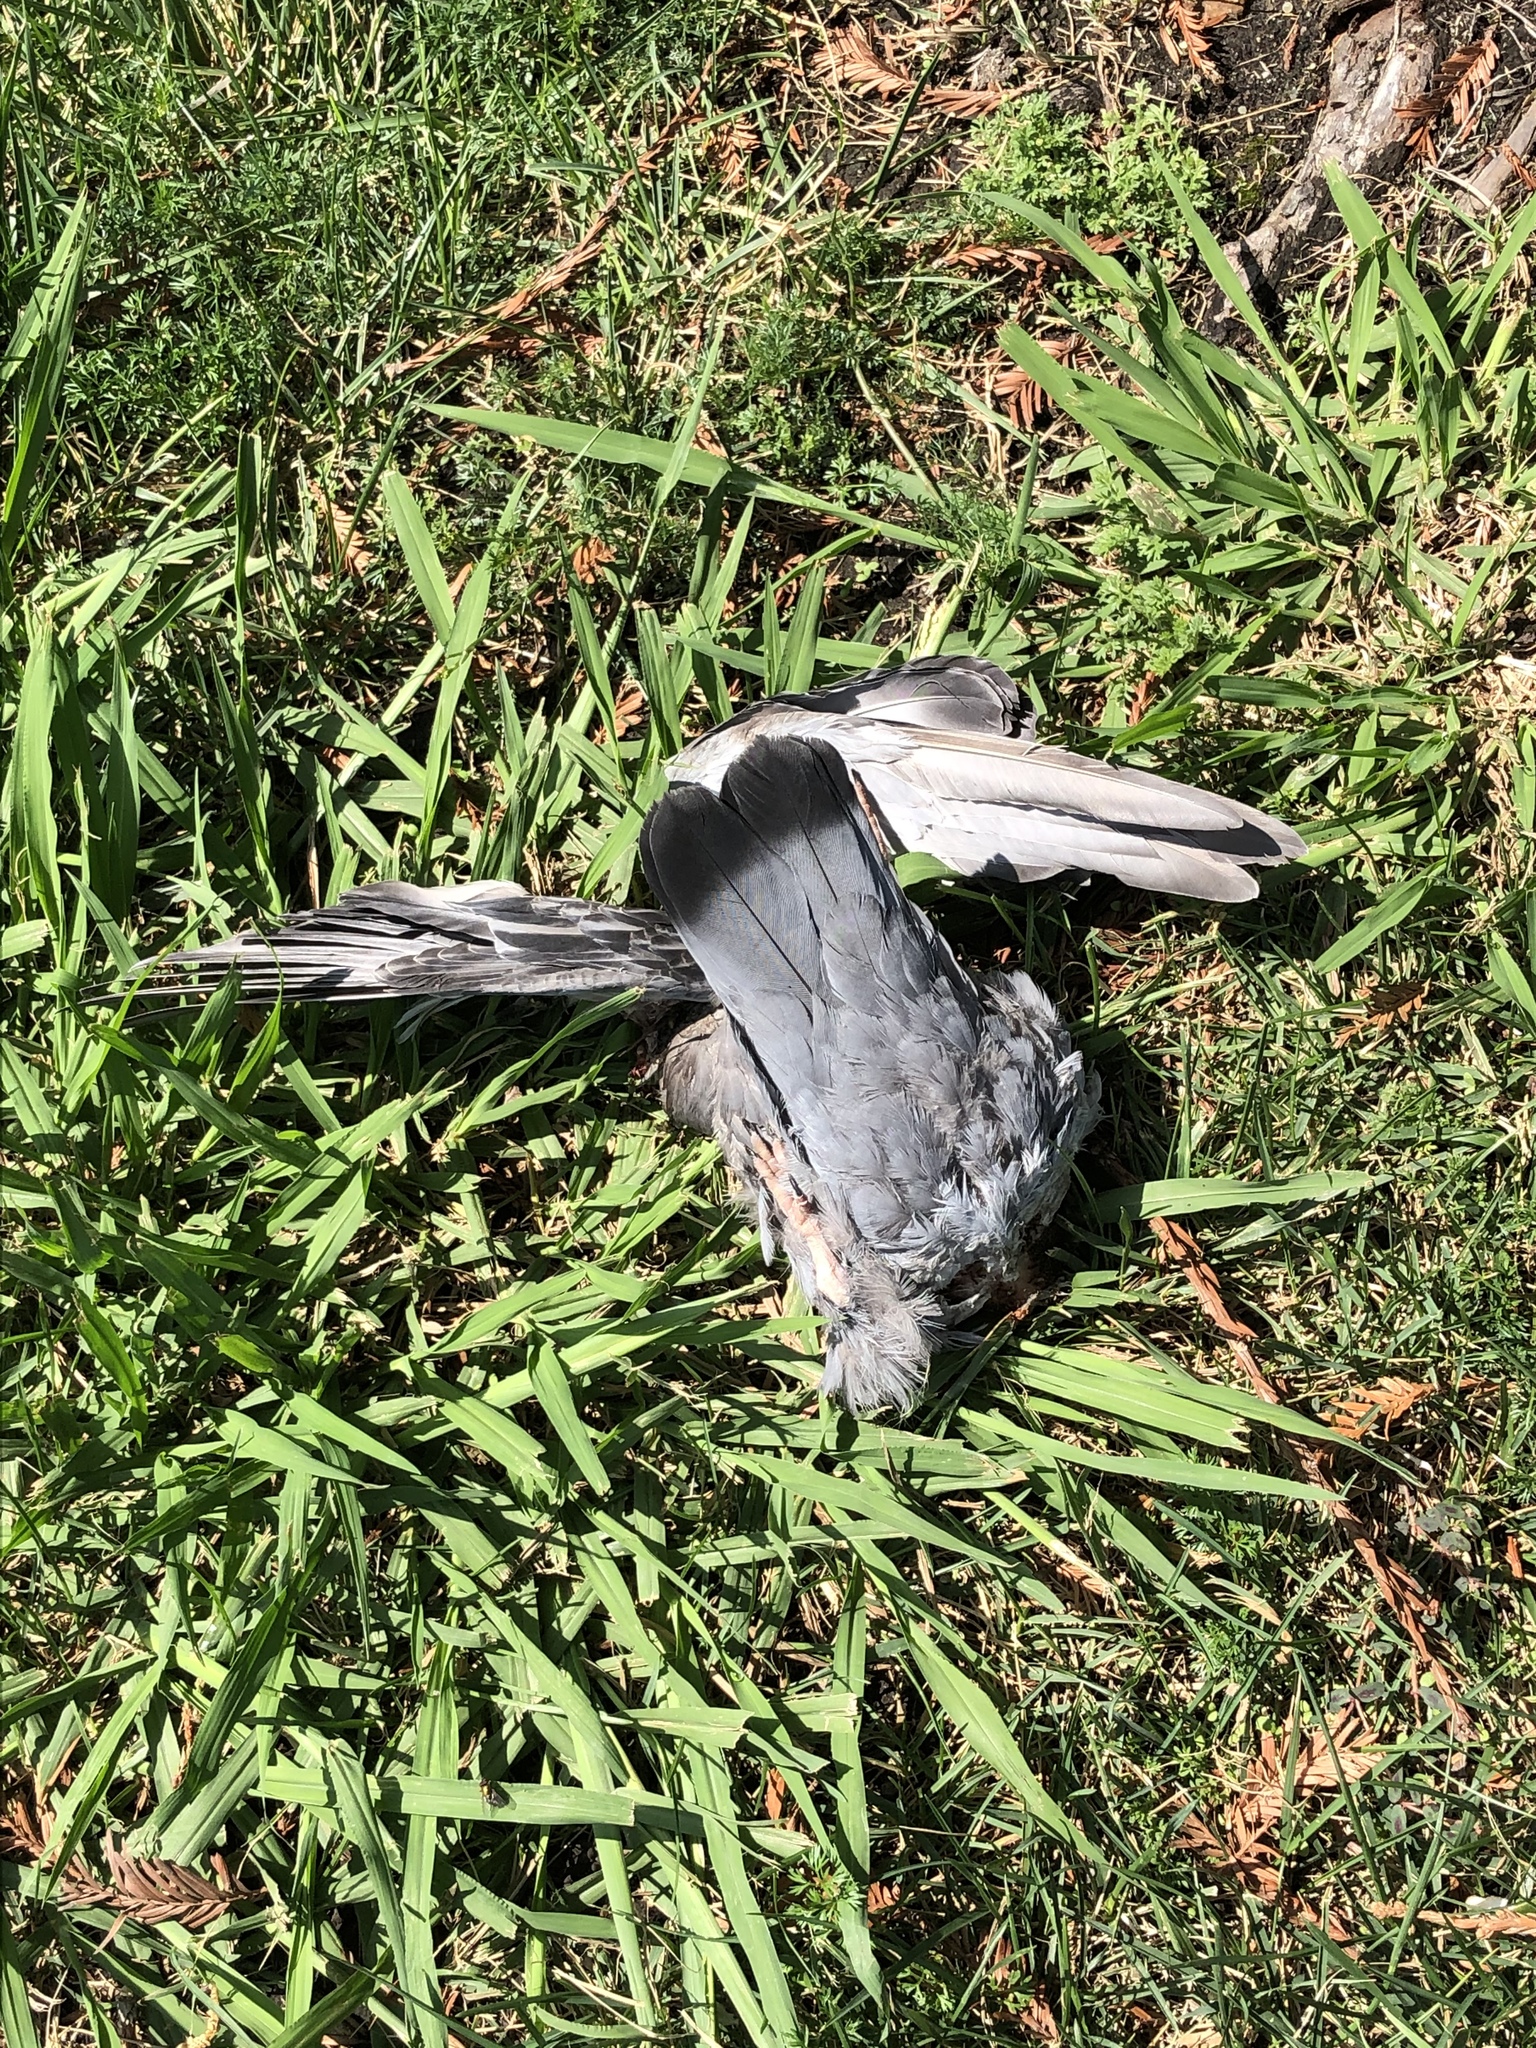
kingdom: Animalia
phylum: Chordata
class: Aves
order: Columbiformes
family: Columbidae
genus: Columba
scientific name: Columba livia
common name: Rock pigeon
